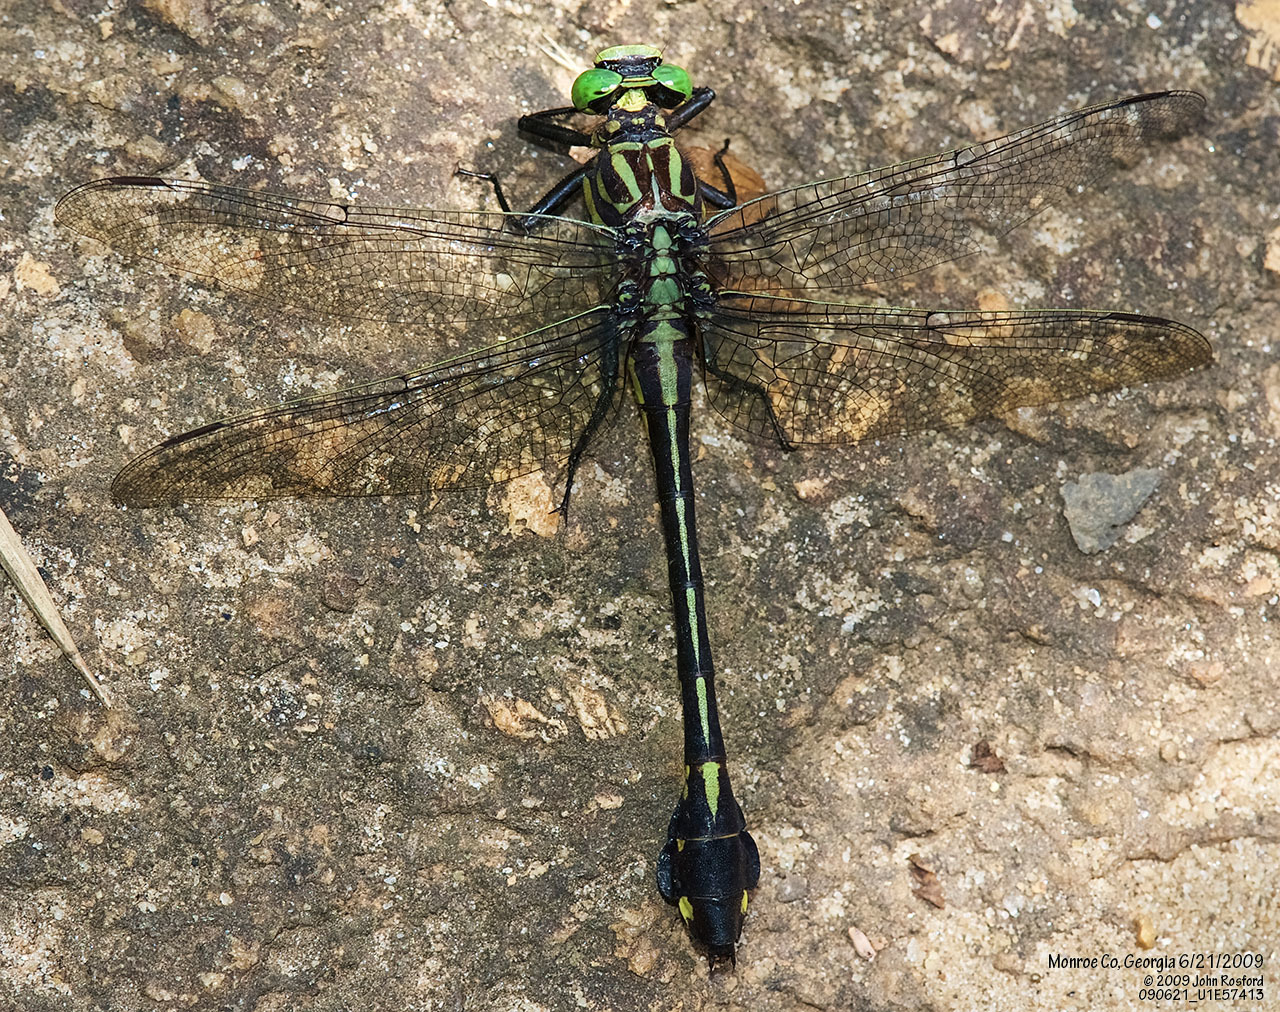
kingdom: Animalia
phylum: Arthropoda
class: Insecta
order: Odonata
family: Gomphidae
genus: Gomphurus
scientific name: Gomphurus dilatatus
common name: Blackwater clubtail
